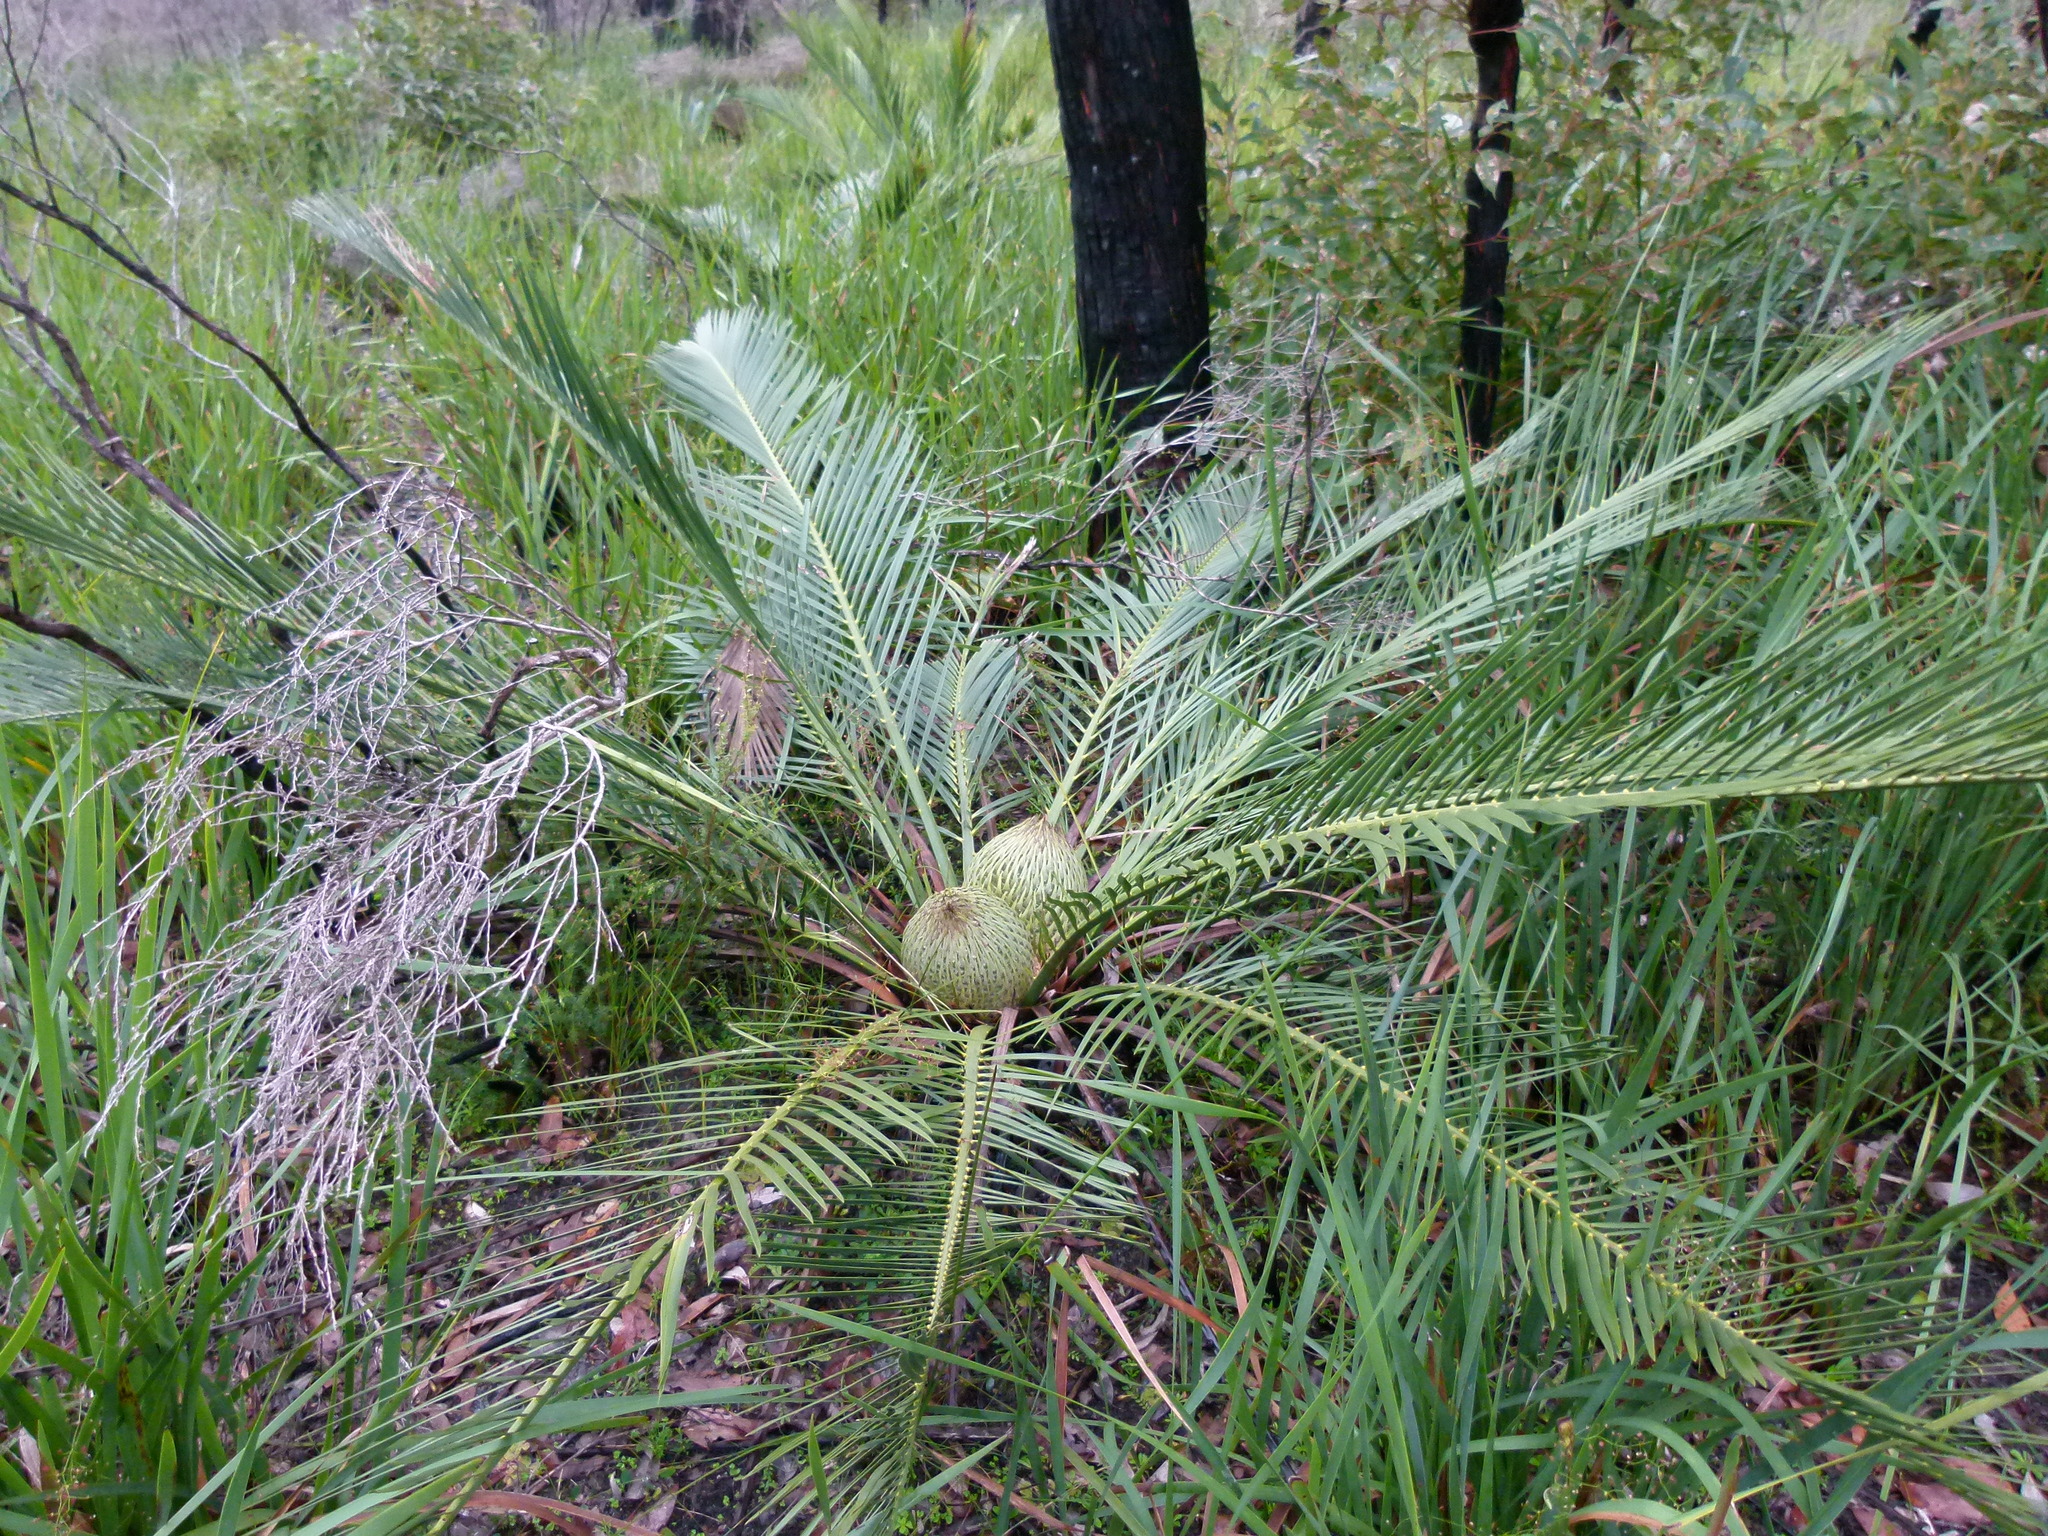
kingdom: Plantae
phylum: Tracheophyta
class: Cycadopsida
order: Cycadales
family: Zamiaceae
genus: Macrozamia
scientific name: Macrozamia riedlei
